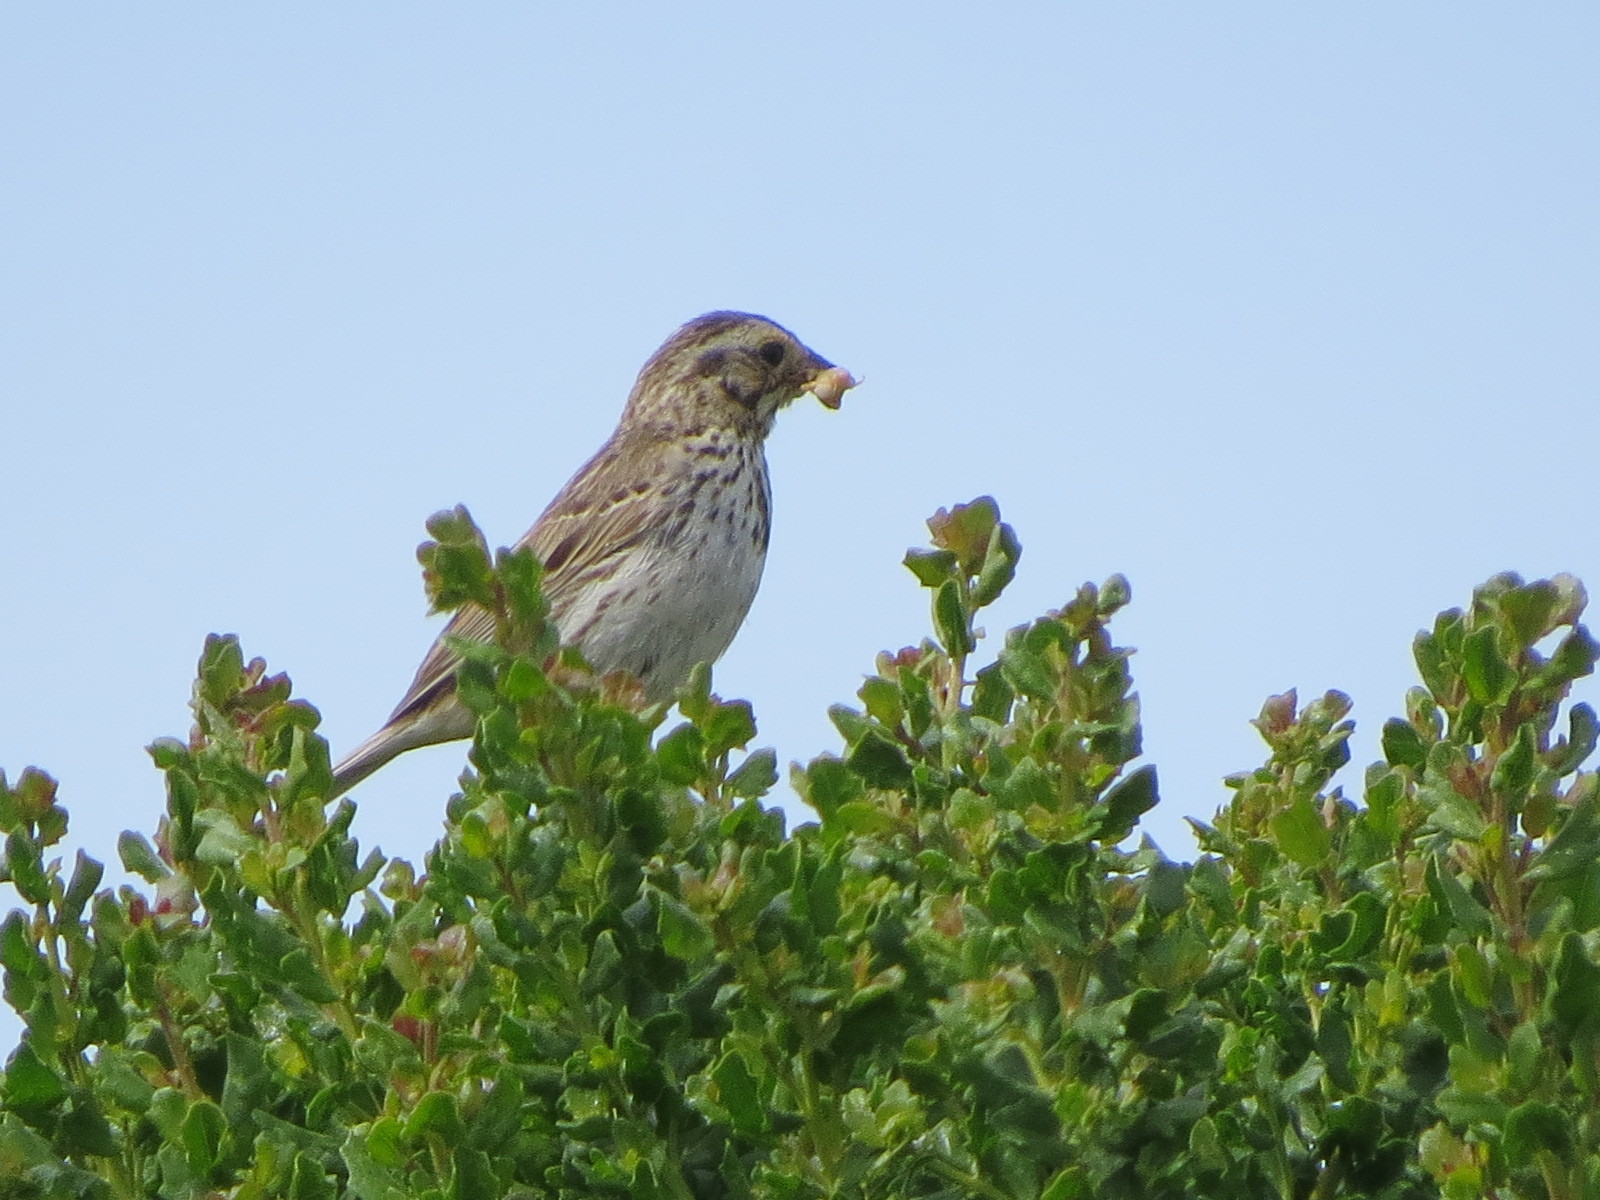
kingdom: Animalia
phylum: Chordata
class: Aves
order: Passeriformes
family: Passerellidae
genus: Passerculus
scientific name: Passerculus sandwichensis
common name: Savannah sparrow
